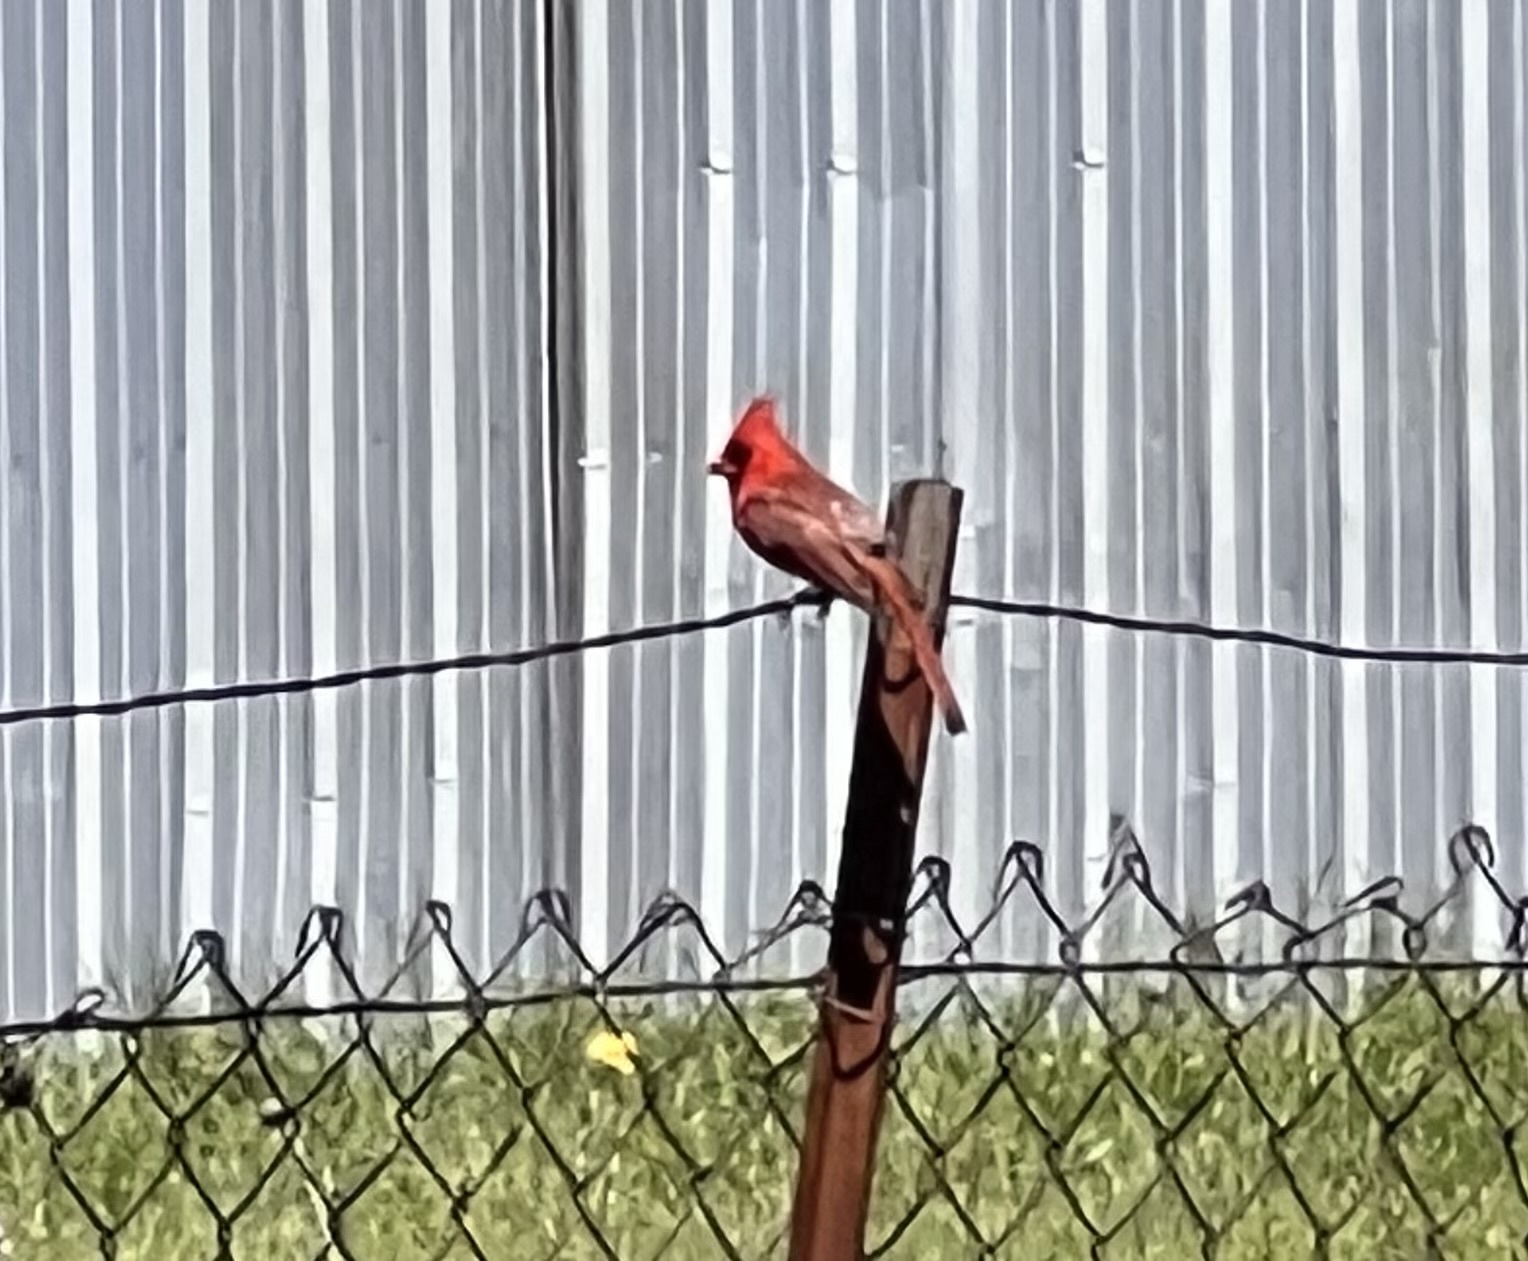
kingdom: Animalia
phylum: Chordata
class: Aves
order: Passeriformes
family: Cardinalidae
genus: Cardinalis
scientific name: Cardinalis cardinalis
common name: Northern cardinal
